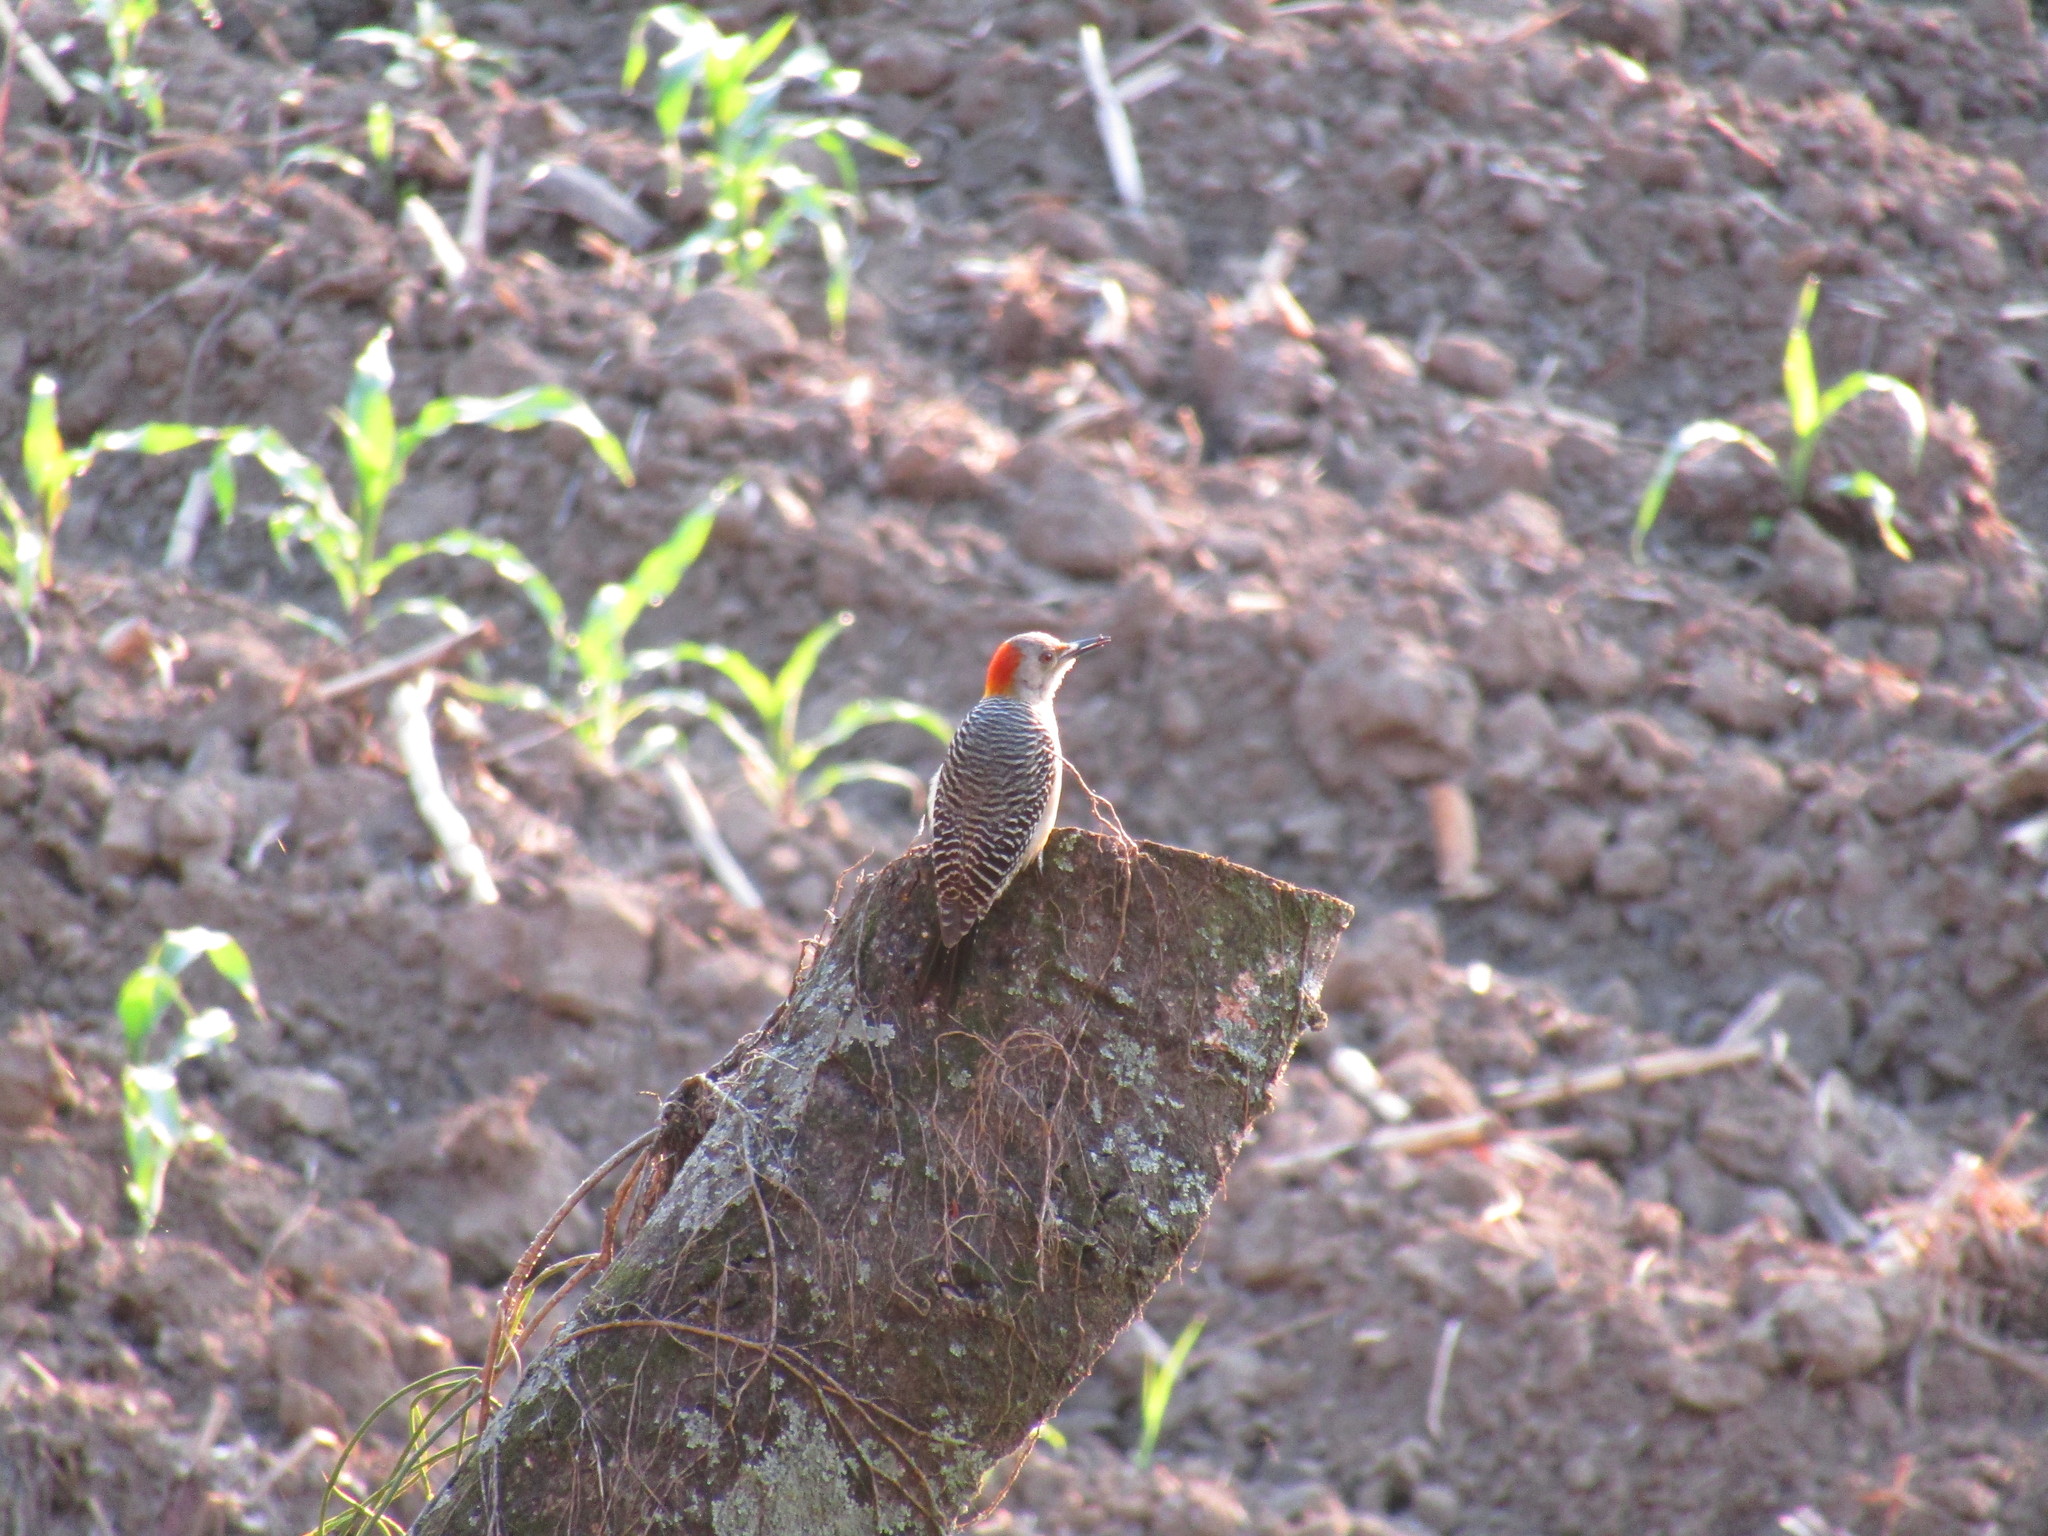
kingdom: Animalia
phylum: Chordata
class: Aves
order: Piciformes
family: Picidae
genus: Melanerpes
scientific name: Melanerpes aurifrons
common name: Golden-fronted woodpecker
